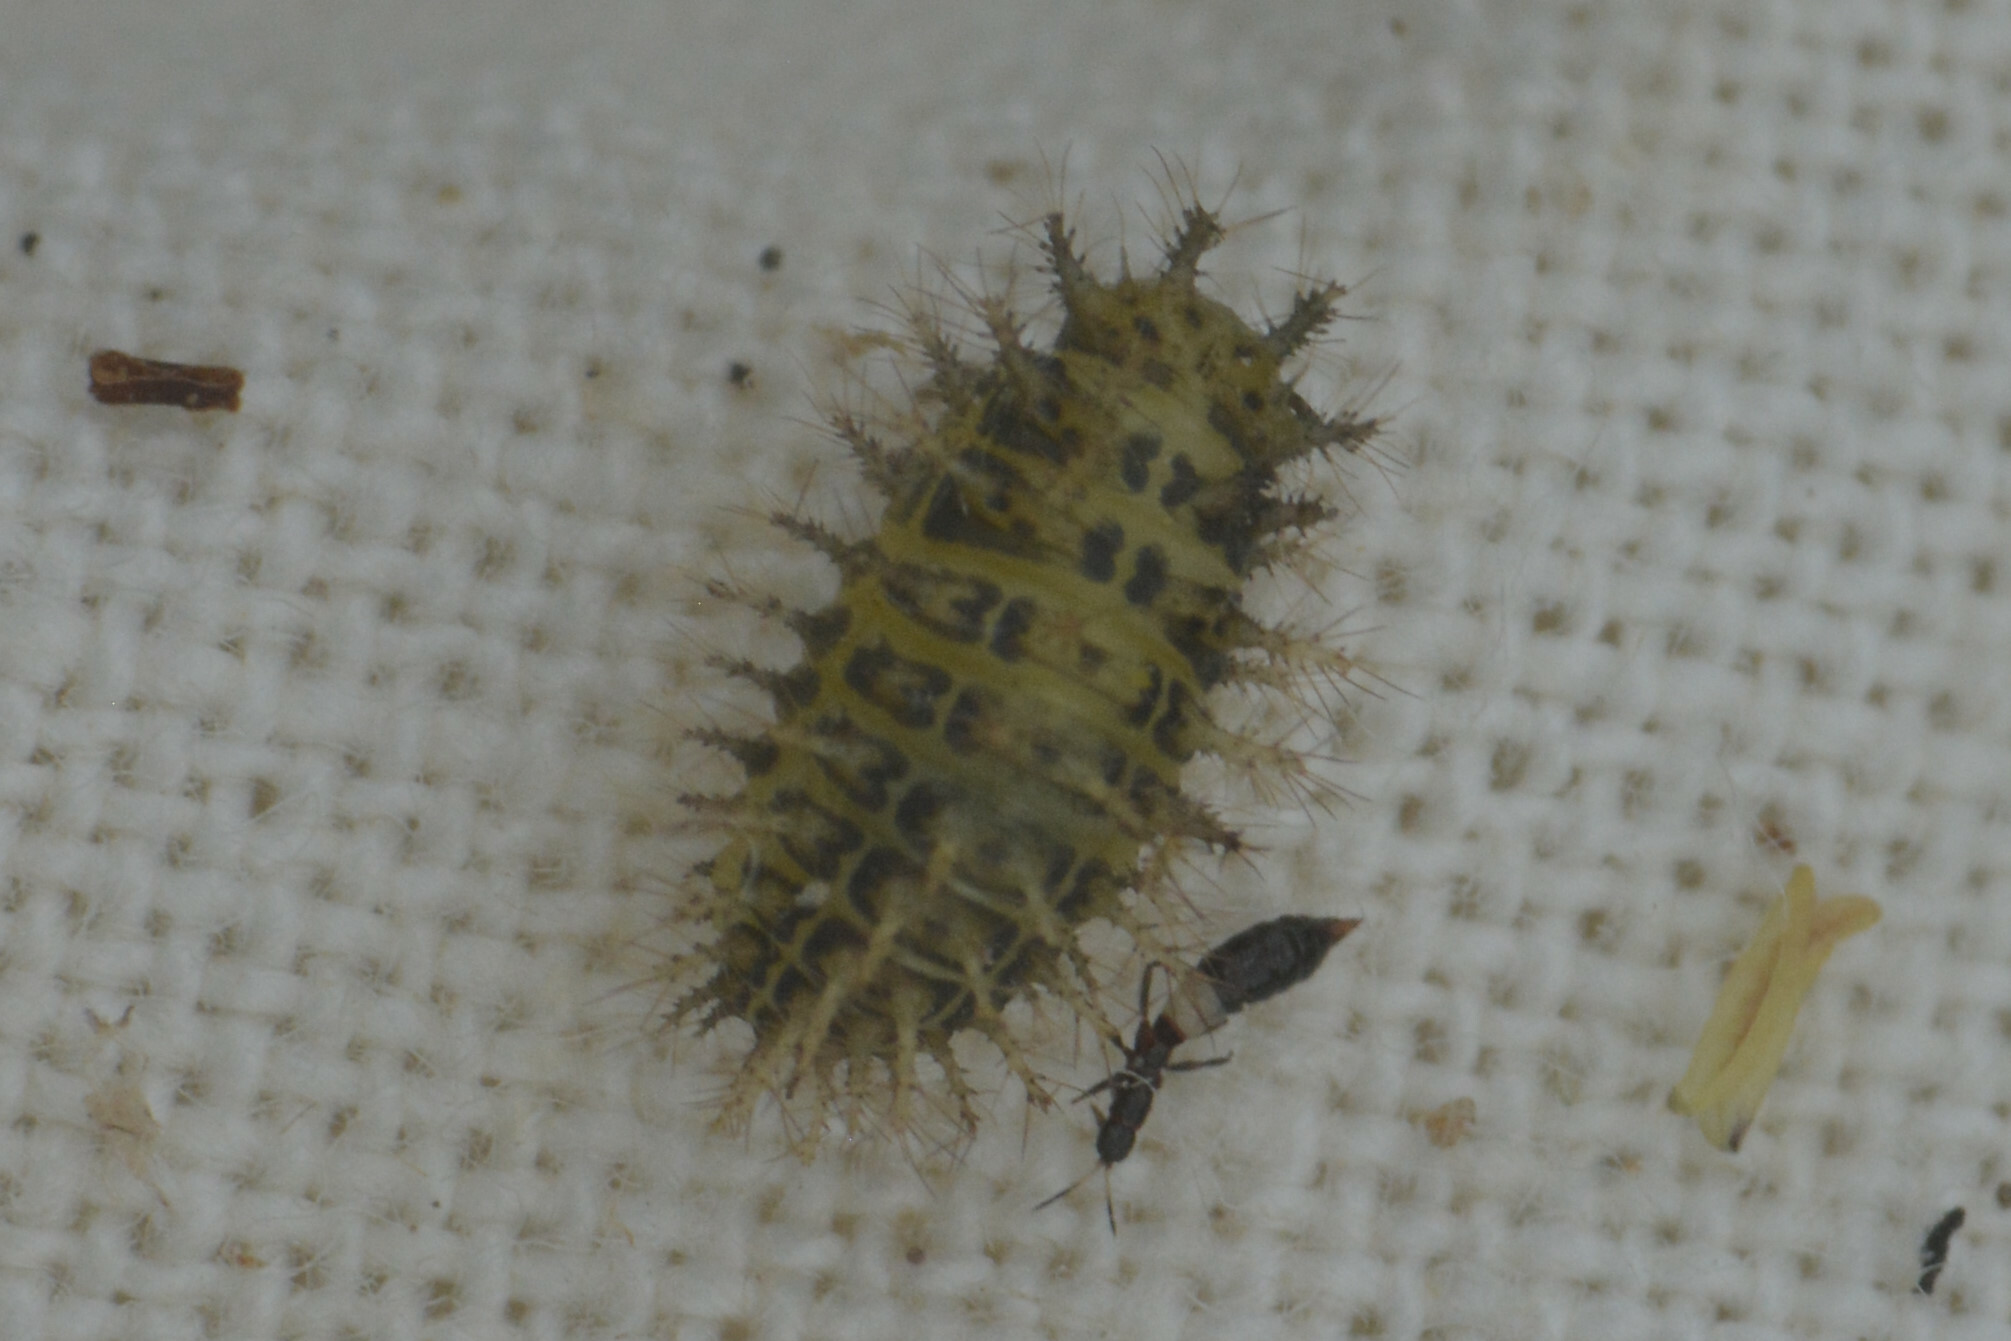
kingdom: Animalia
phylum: Arthropoda
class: Insecta
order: Coleoptera
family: Coccinellidae
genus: Subcoccinella
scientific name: Subcoccinella vigintiquatuorpunctata
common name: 24-spot ladybird
